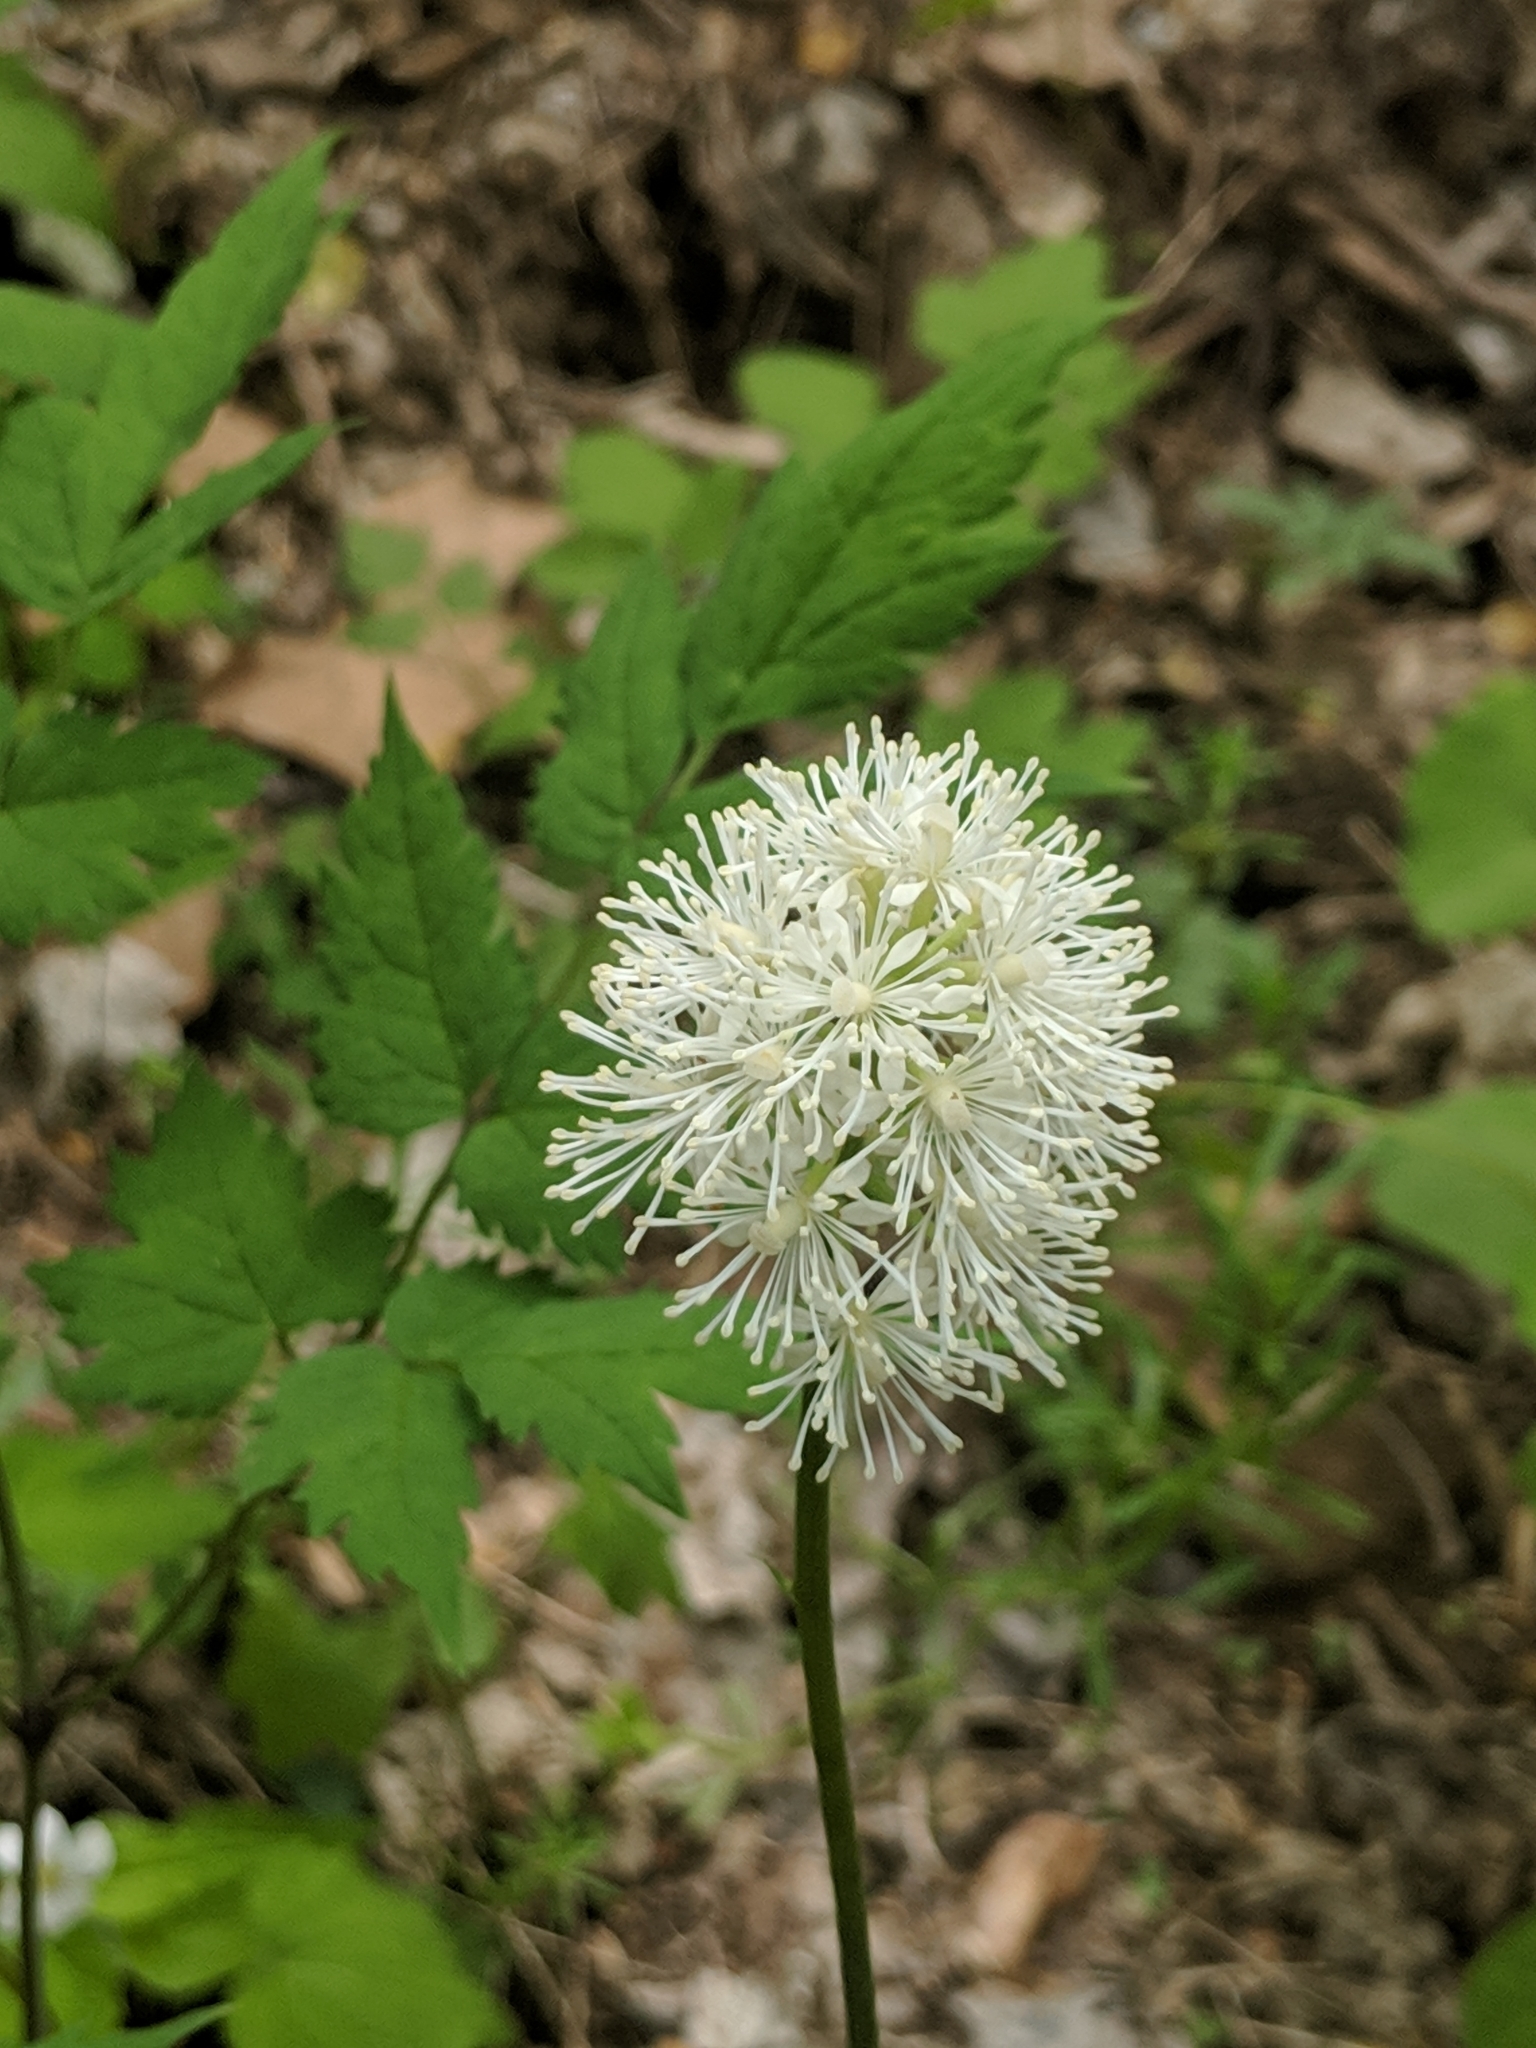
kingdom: Plantae
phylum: Tracheophyta
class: Magnoliopsida
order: Ranunculales
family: Ranunculaceae
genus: Actaea
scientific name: Actaea pachypoda
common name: Doll's-eyes
